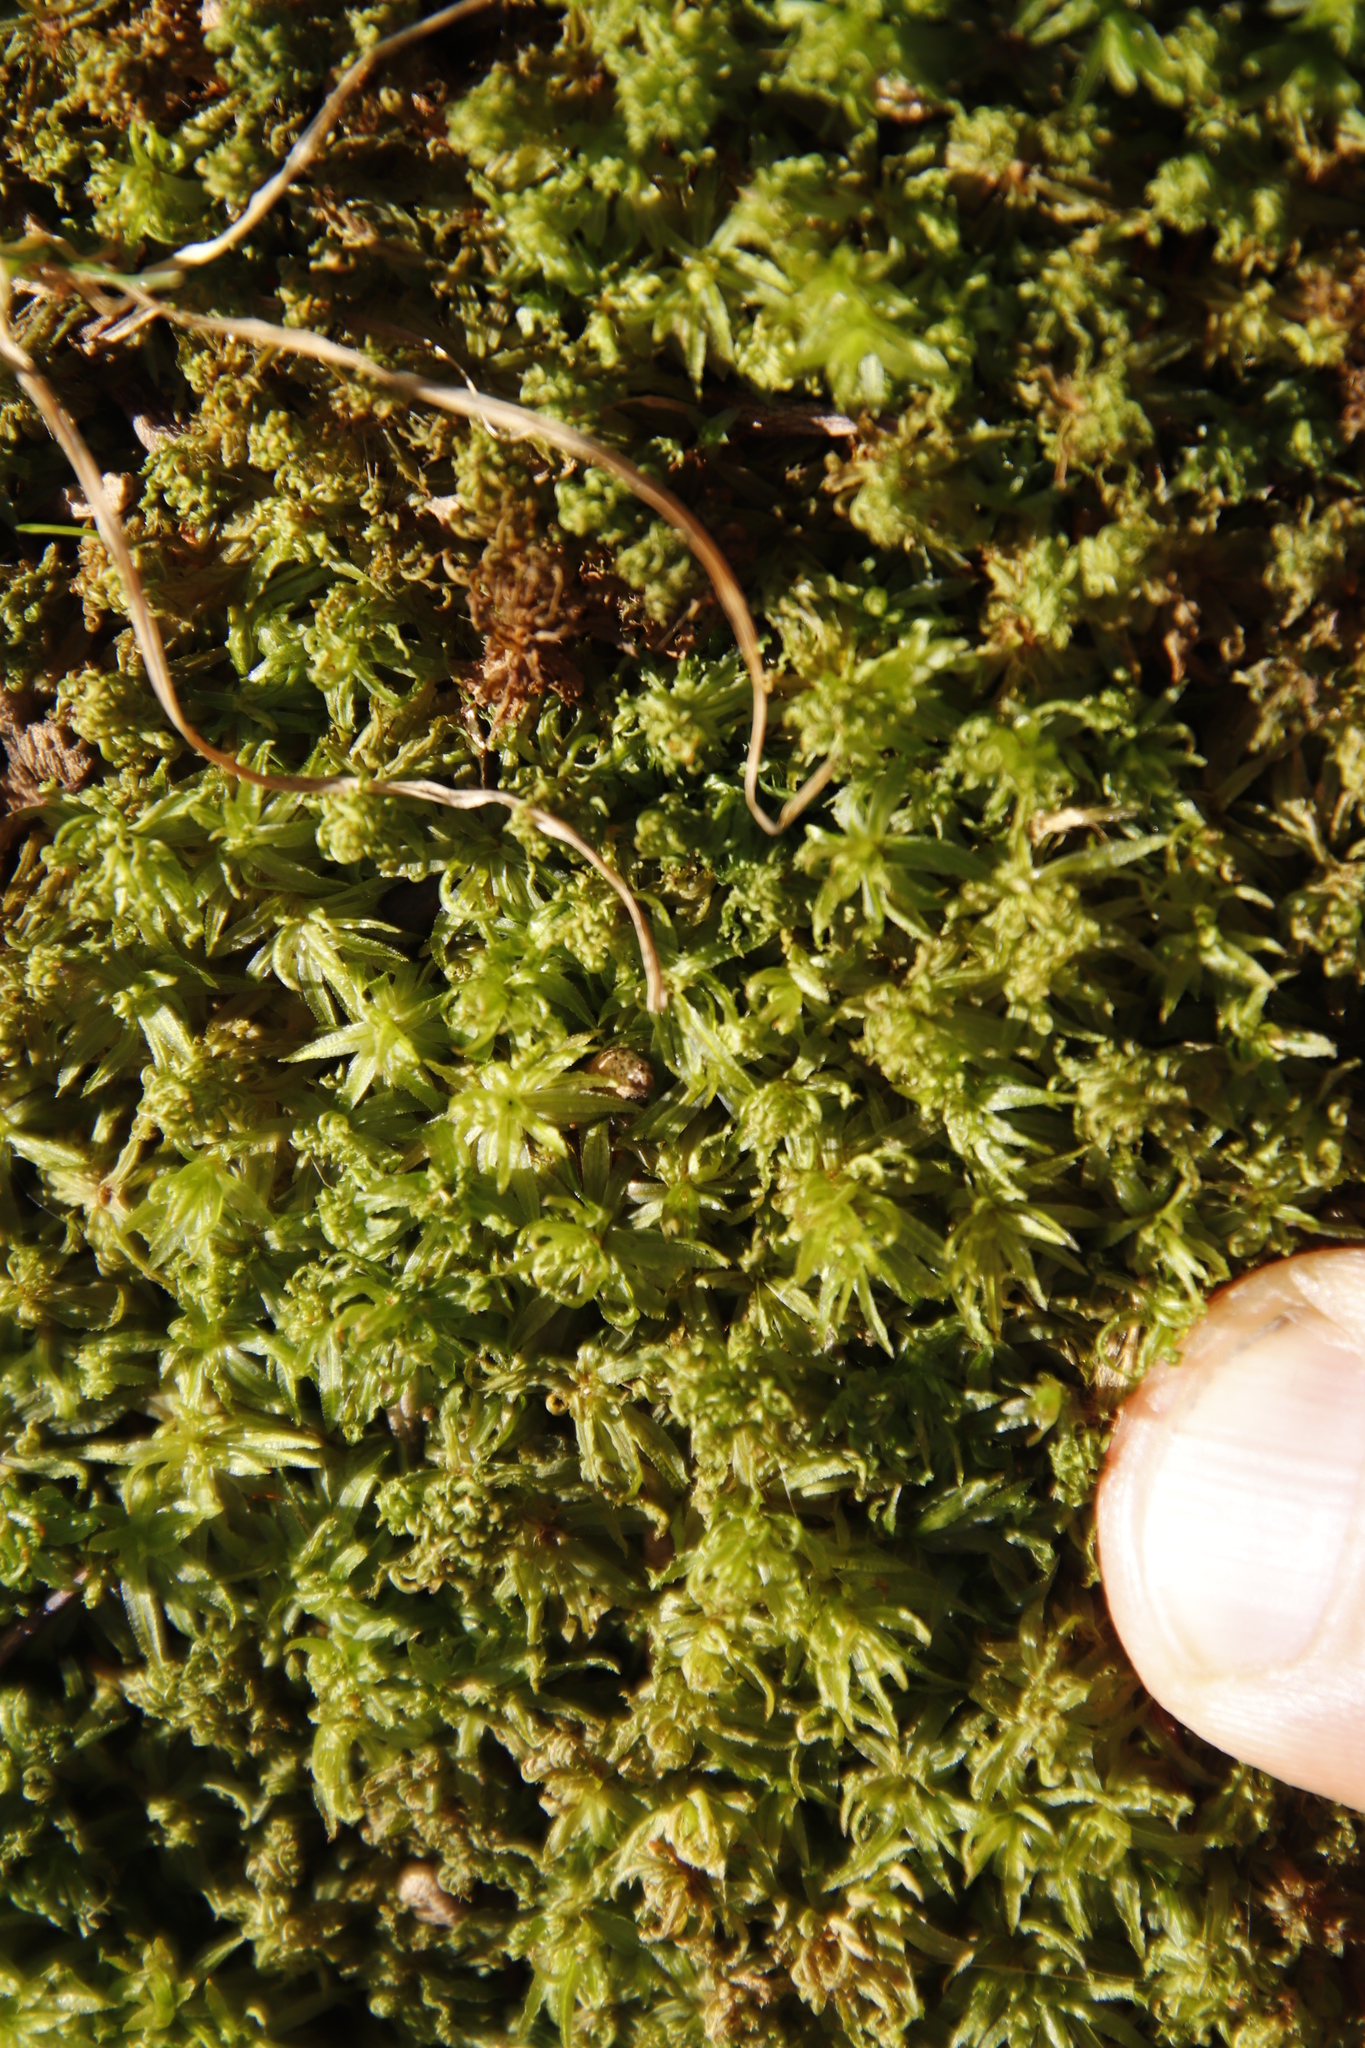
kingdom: Plantae
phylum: Bryophyta
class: Polytrichopsida
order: Polytrichales
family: Polytrichaceae
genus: Atrichum
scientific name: Atrichum androgynum
